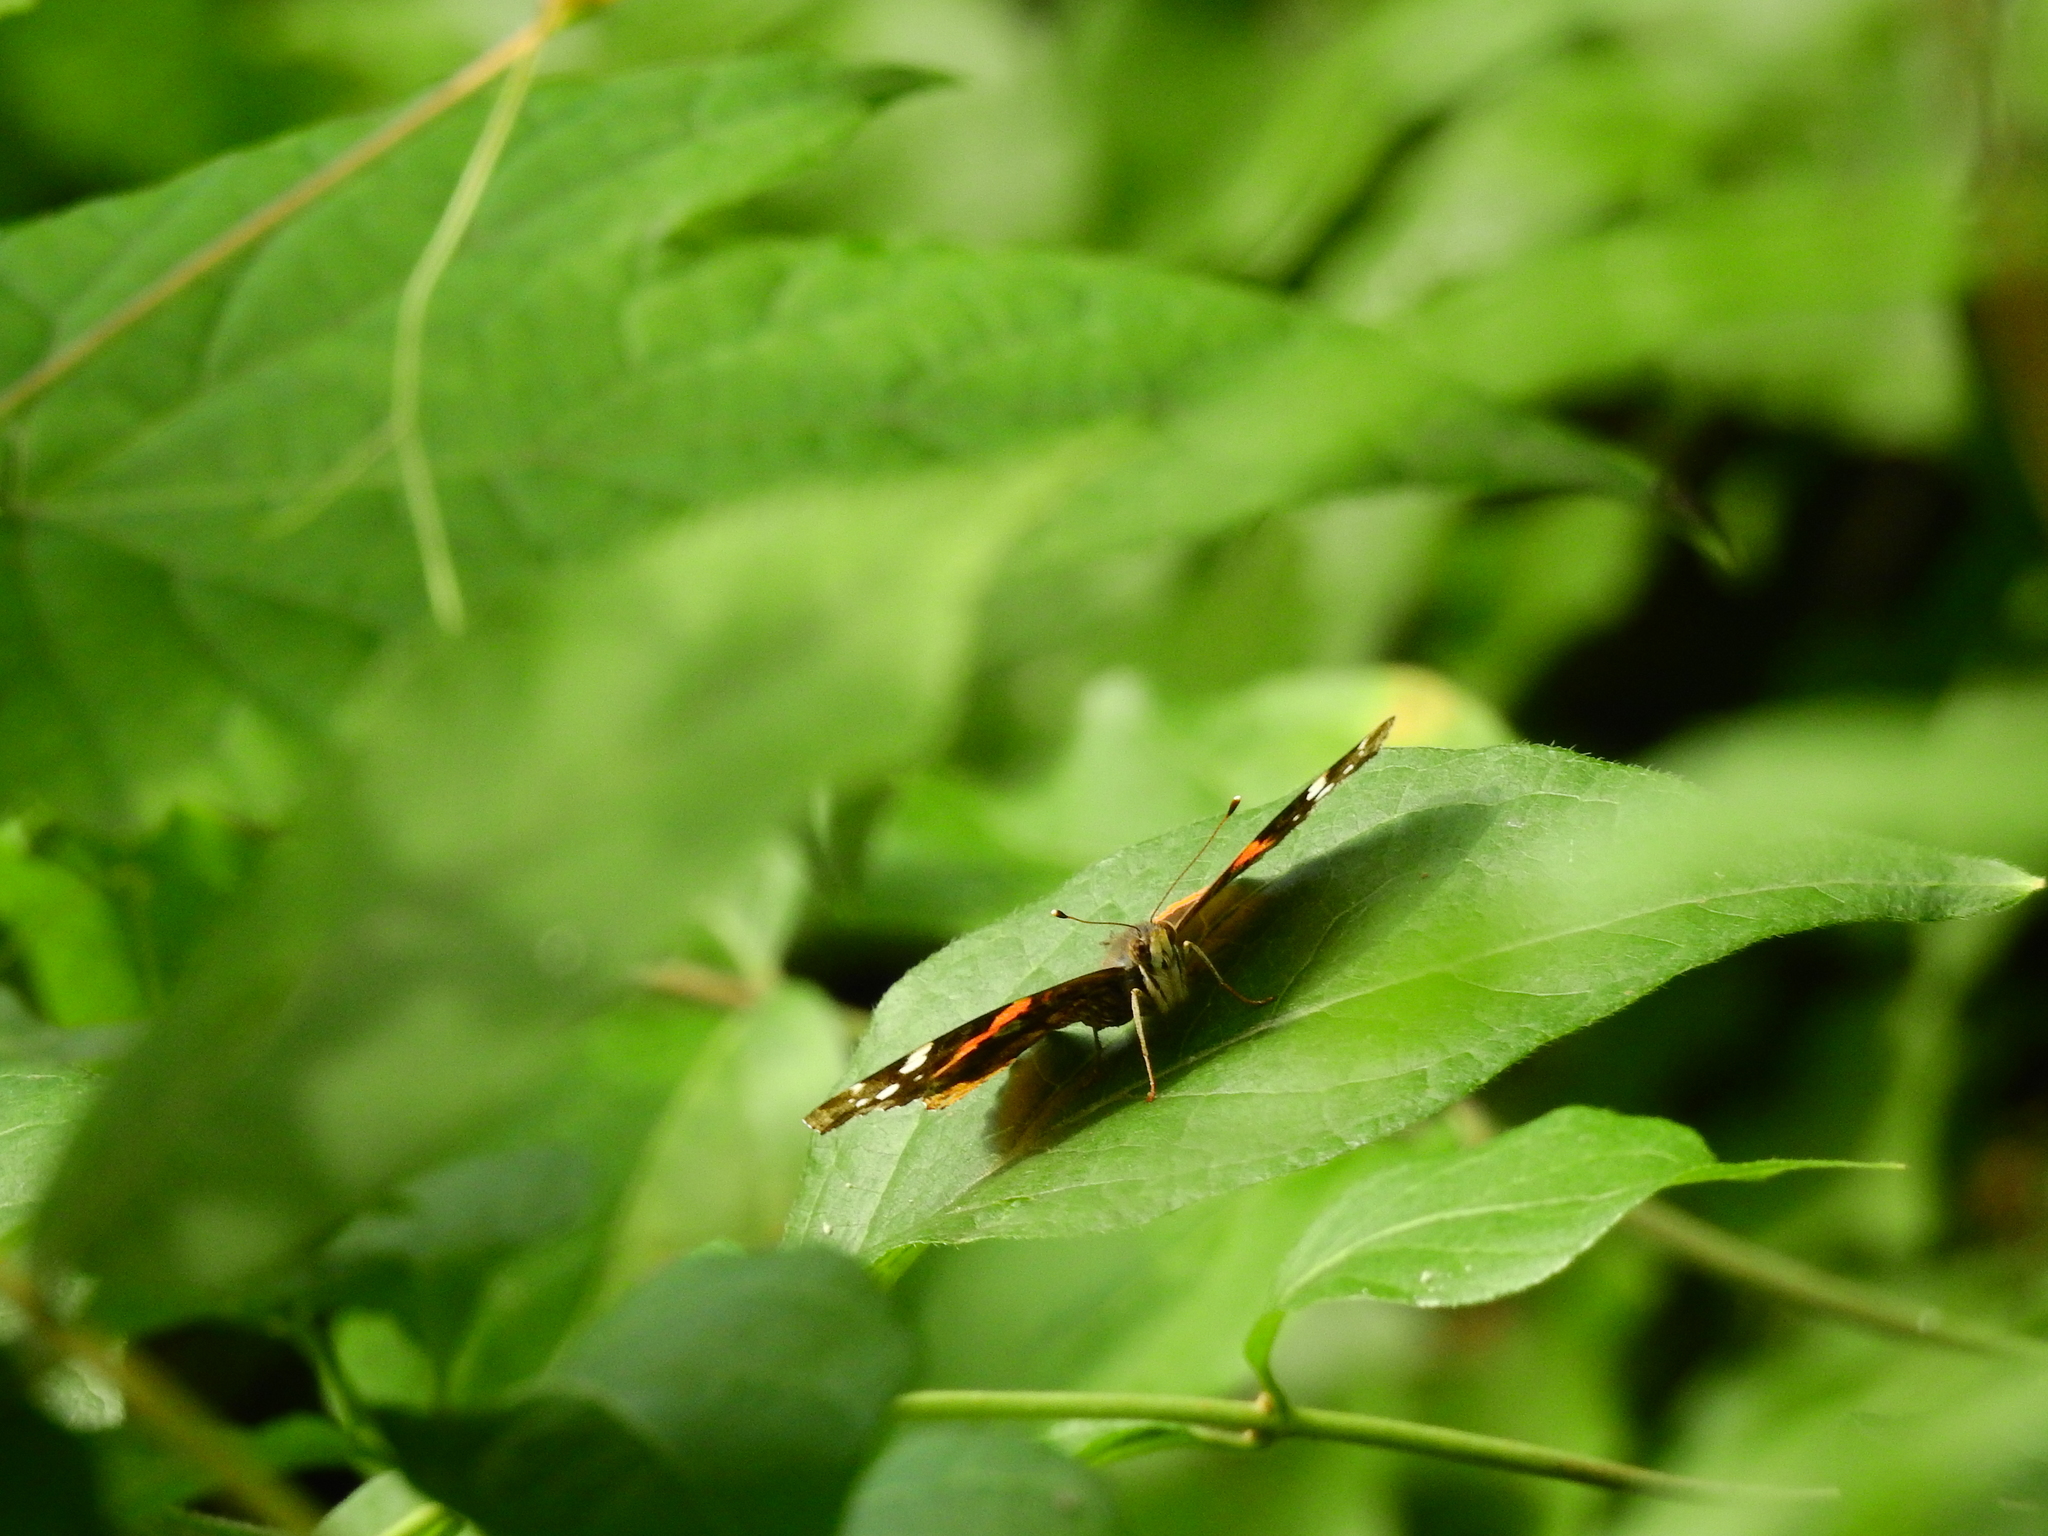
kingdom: Animalia
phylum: Arthropoda
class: Insecta
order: Lepidoptera
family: Nymphalidae
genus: Vanessa
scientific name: Vanessa atalanta
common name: Red admiral
